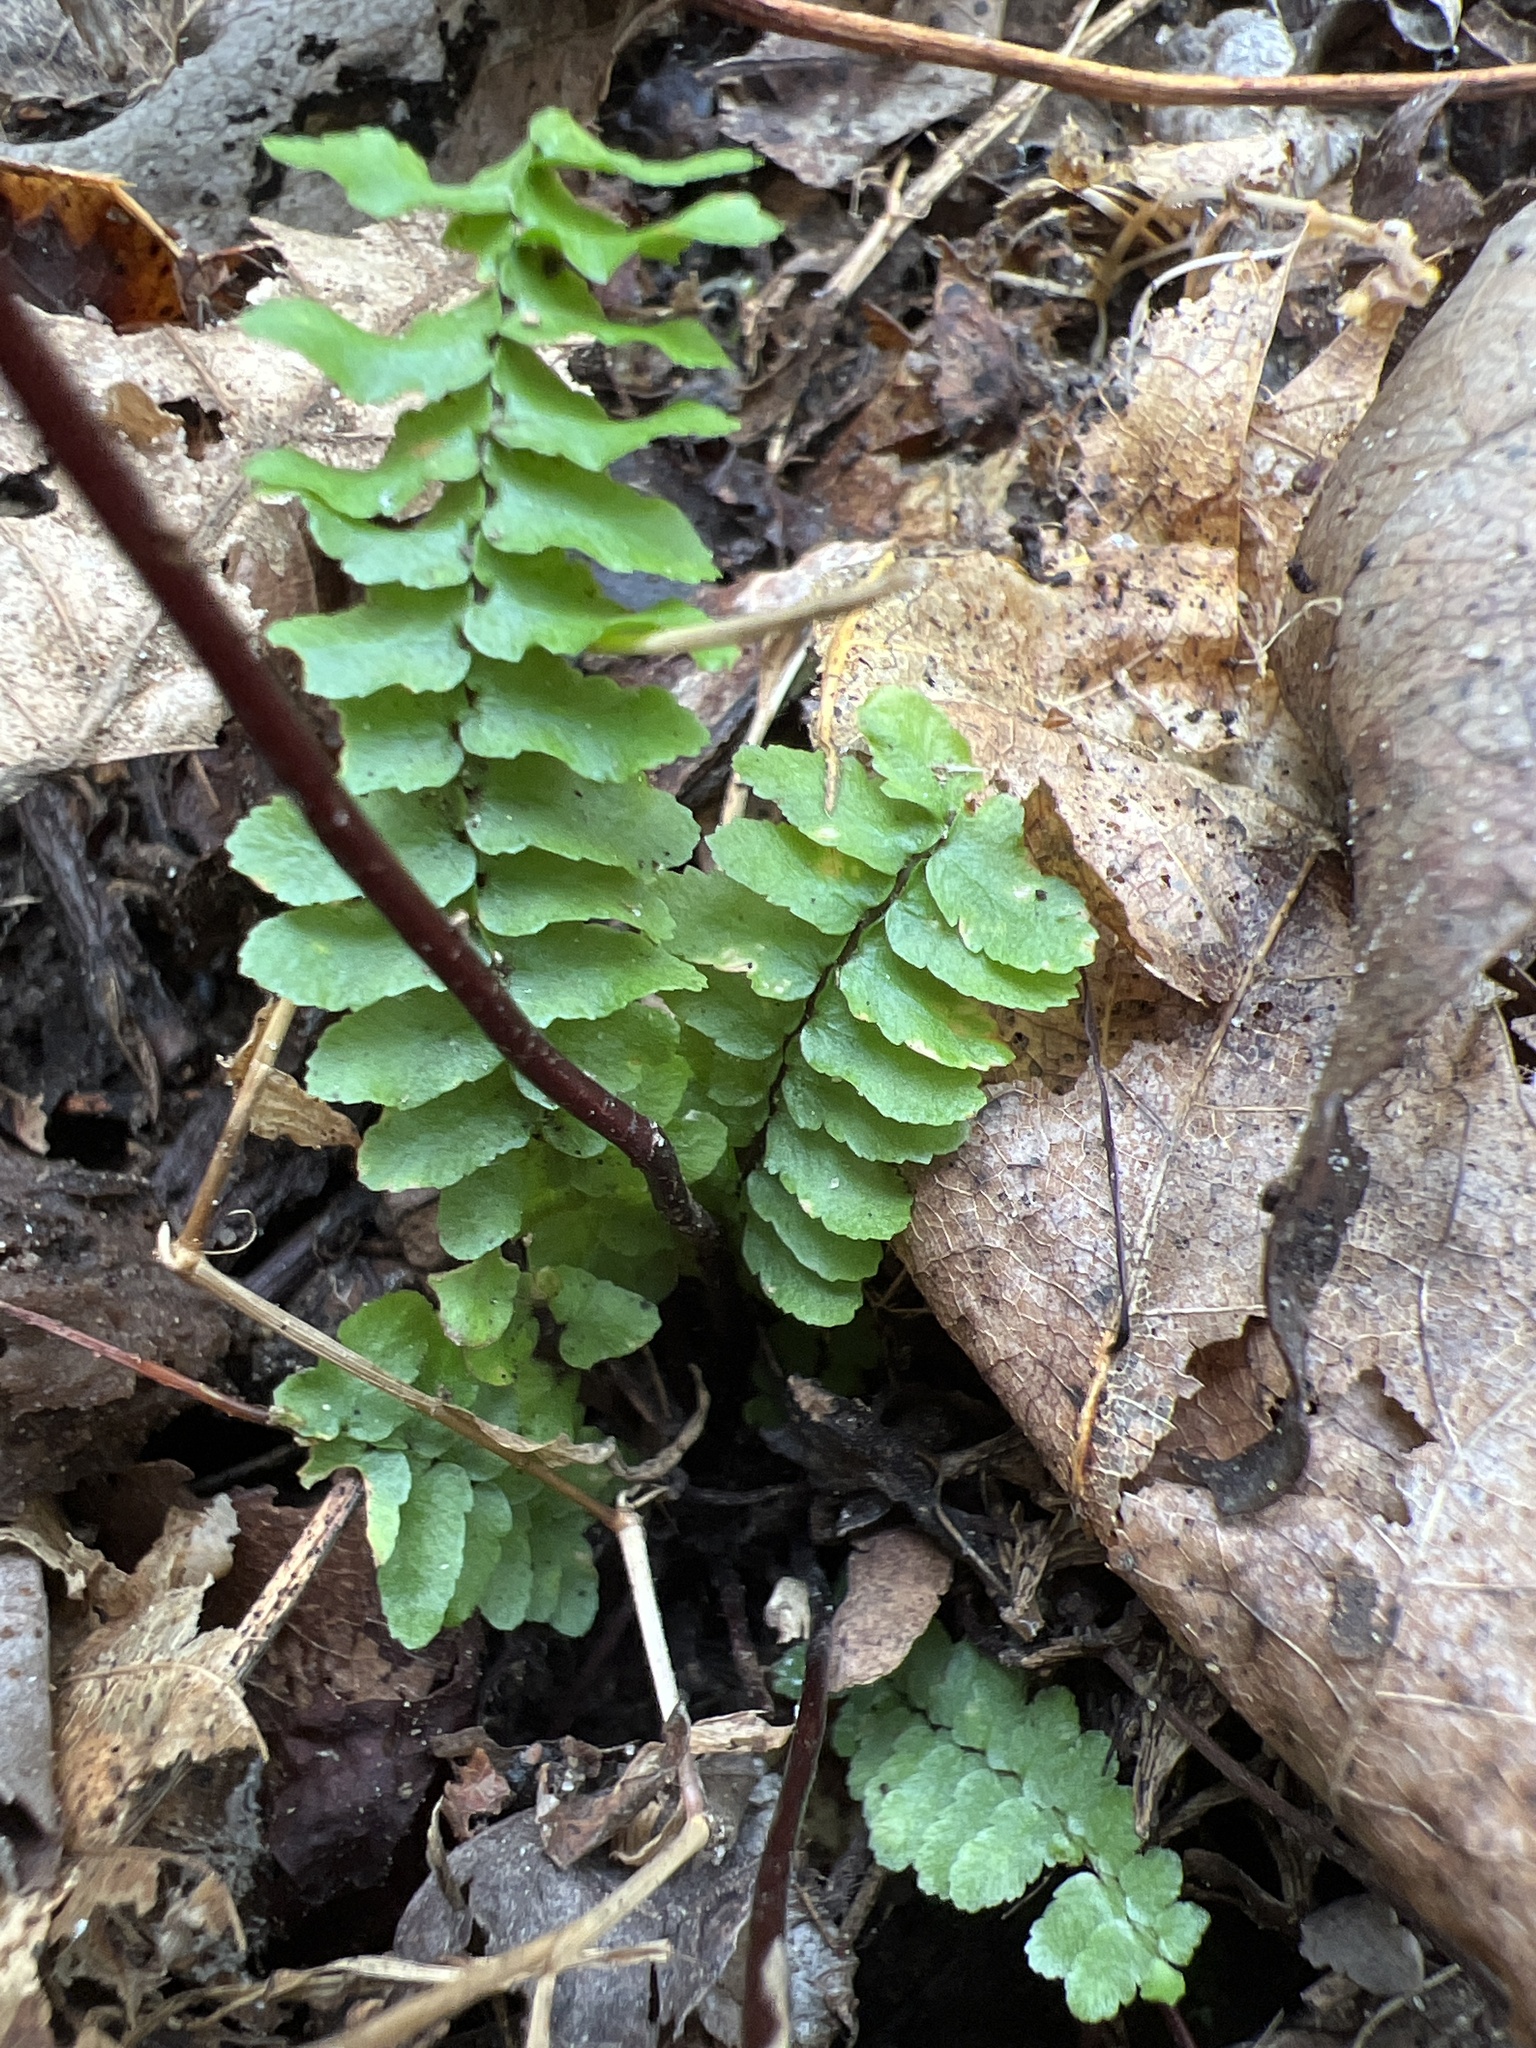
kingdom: Plantae
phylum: Tracheophyta
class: Polypodiopsida
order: Polypodiales
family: Aspleniaceae
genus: Asplenium
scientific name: Asplenium platyneuron
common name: Ebony spleenwort
